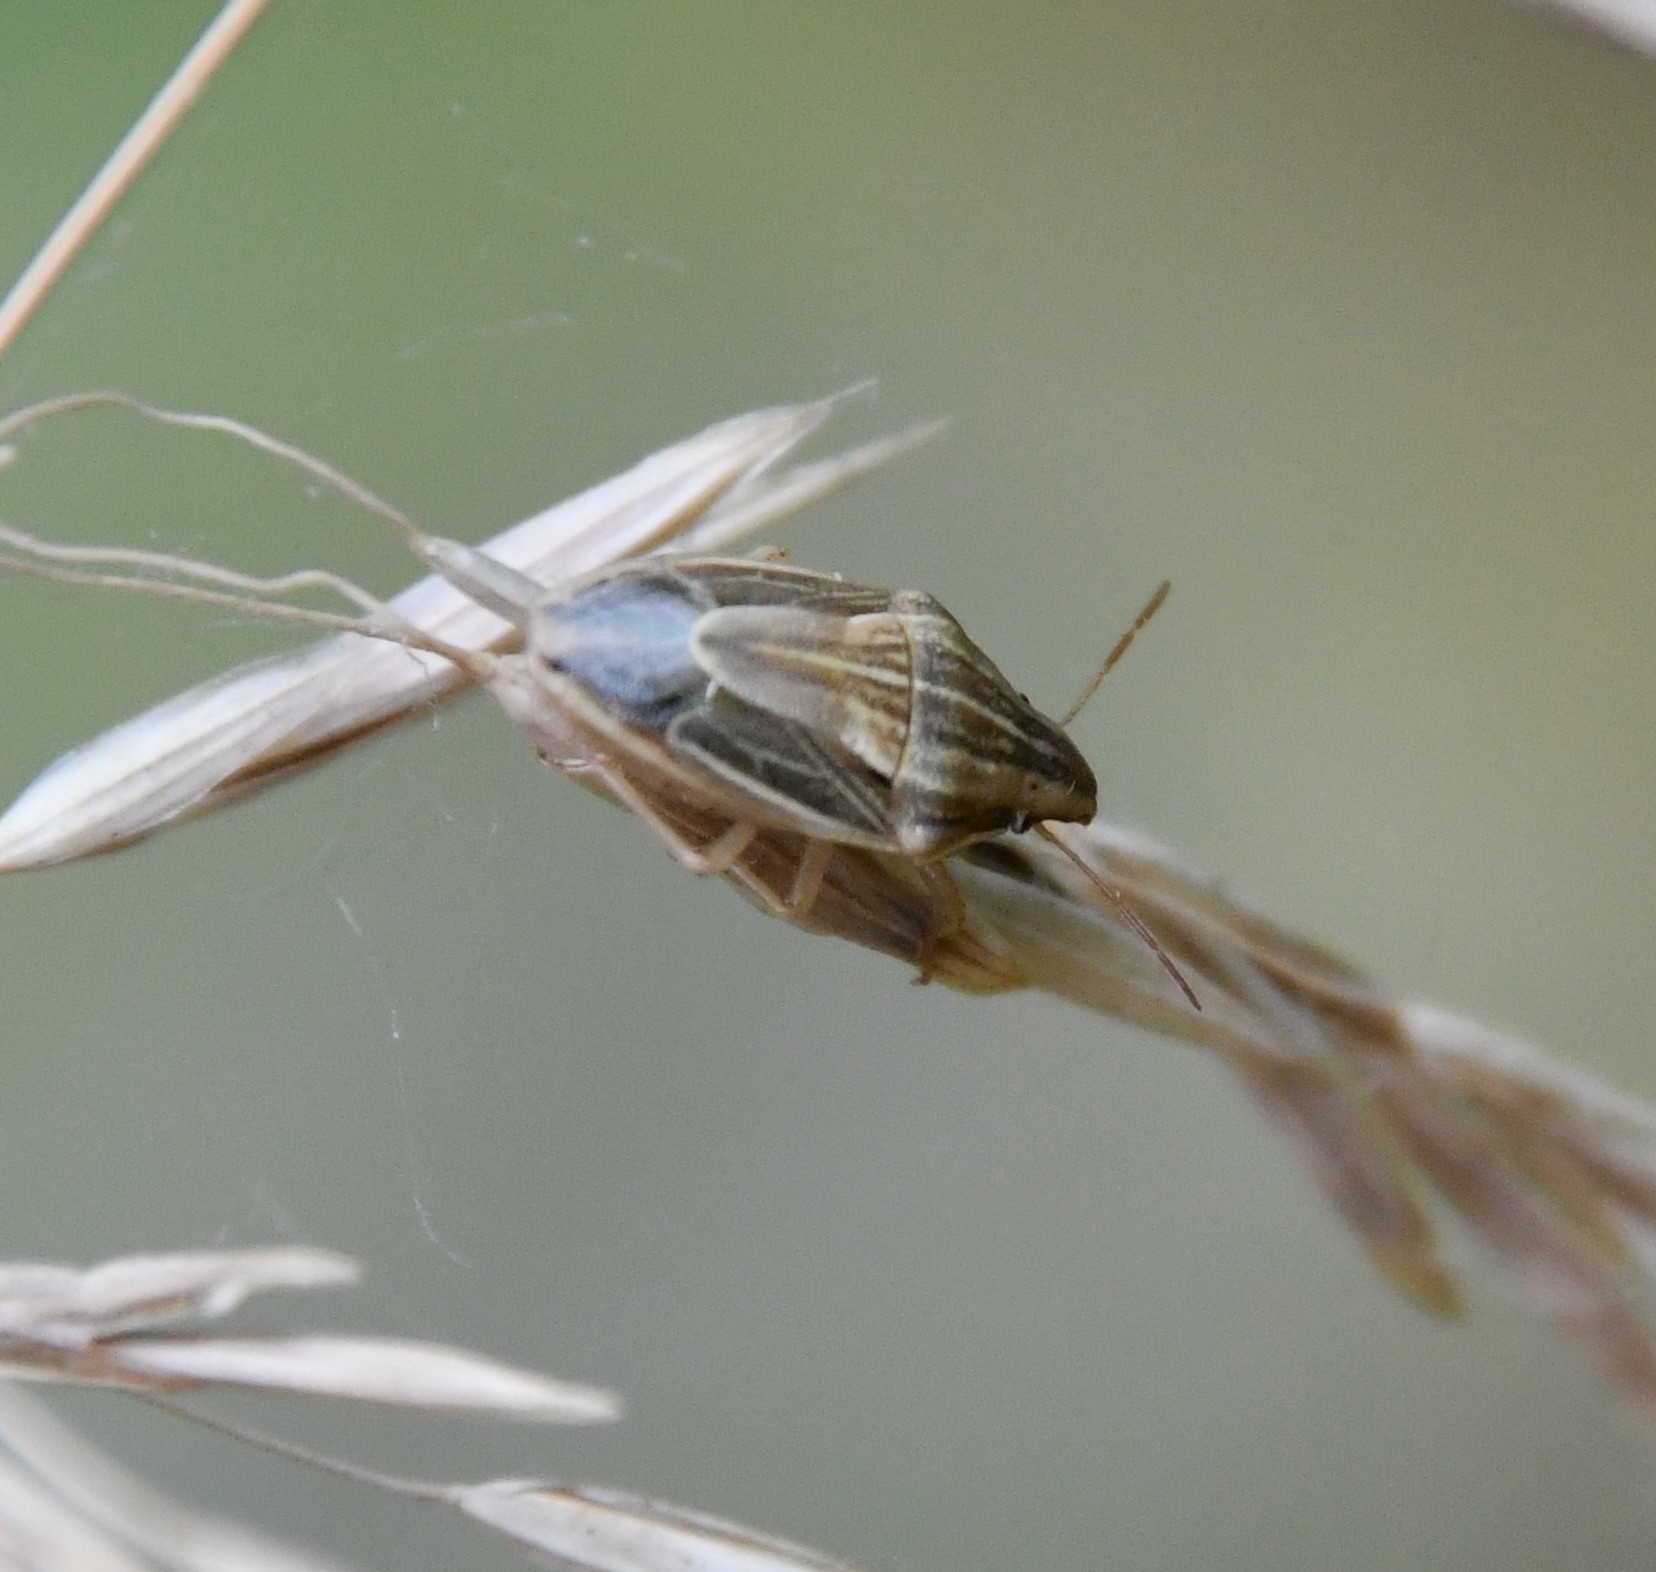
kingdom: Animalia
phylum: Arthropoda
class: Insecta
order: Hemiptera
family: Pentatomidae
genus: Aelia
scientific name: Aelia acuminata
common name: Bishop's mitre
